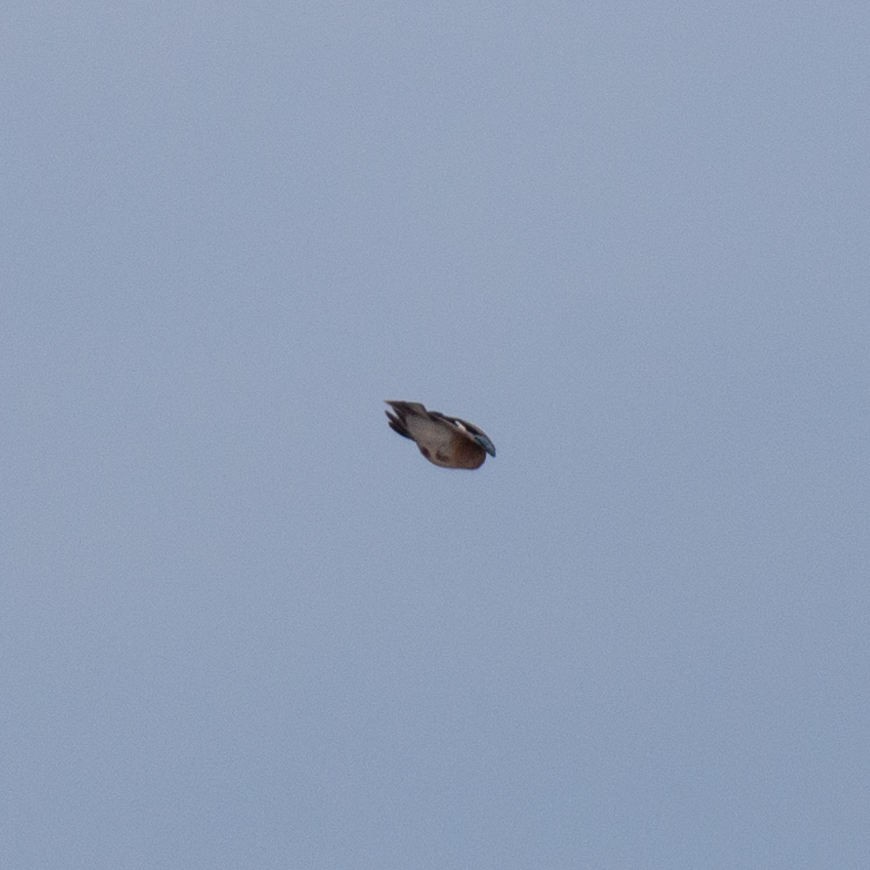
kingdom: Animalia
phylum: Chordata
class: Aves
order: Passeriformes
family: Corvidae
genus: Garrulus
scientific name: Garrulus glandarius
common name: Eurasian jay
